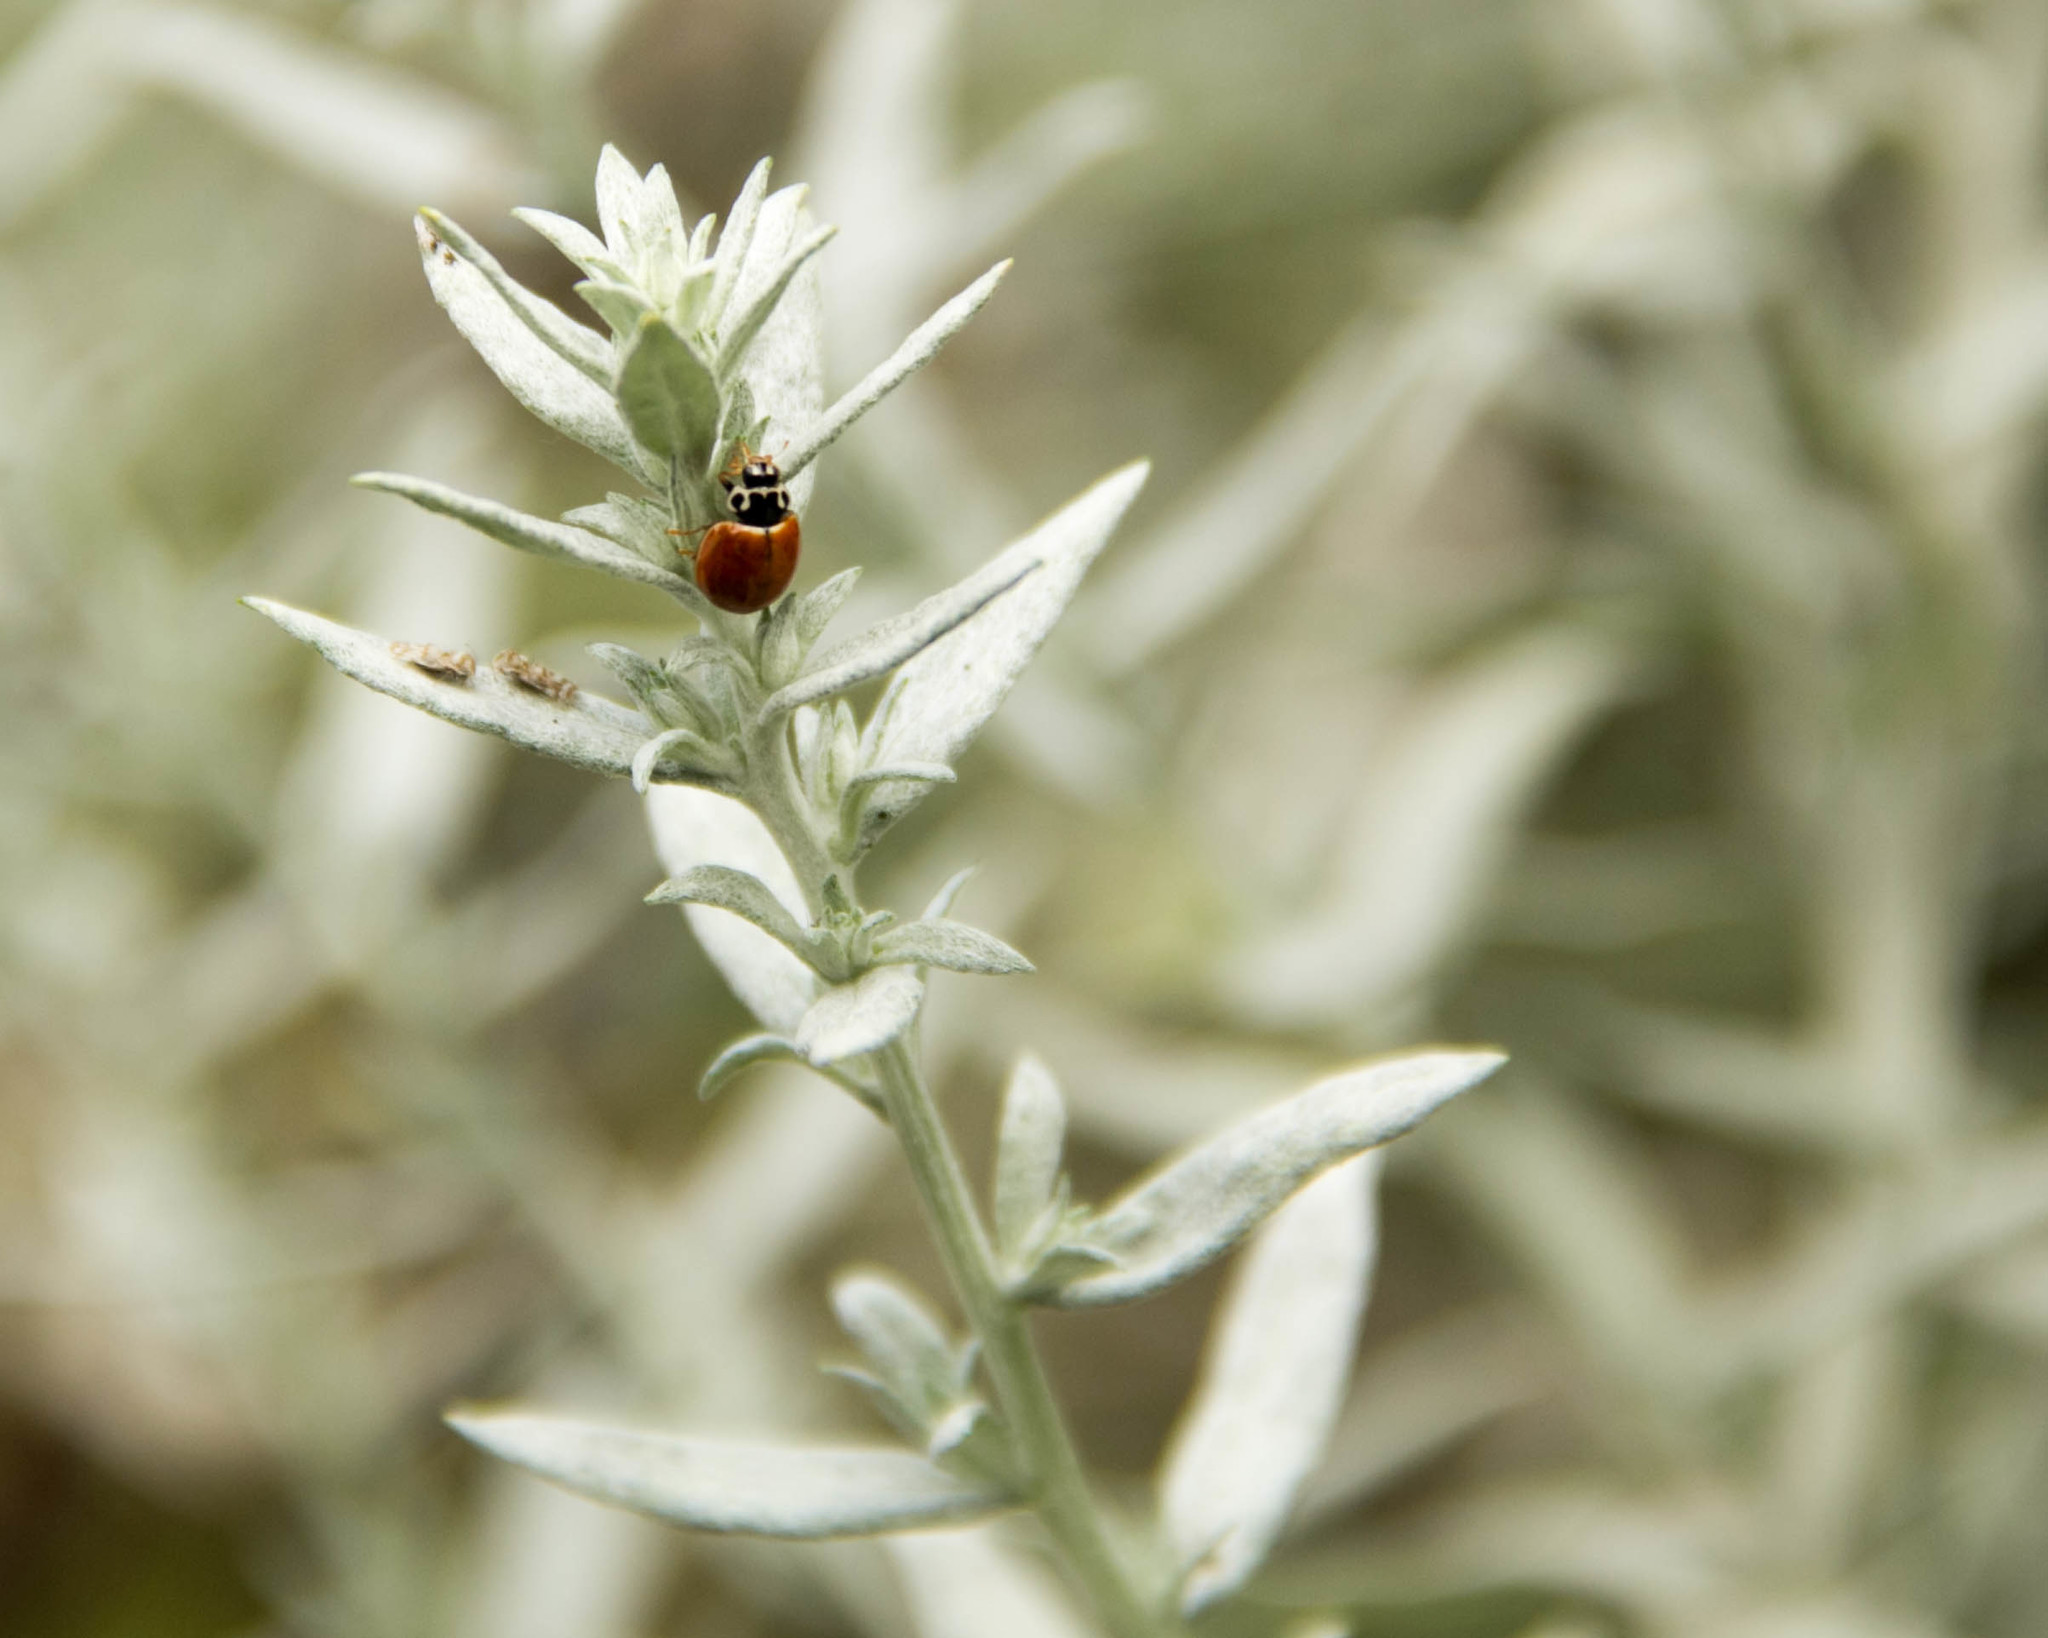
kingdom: Animalia
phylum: Arthropoda
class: Insecta
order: Coleoptera
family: Coccinellidae
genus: Cycloneda
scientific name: Cycloneda munda
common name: Polished lady beetle
